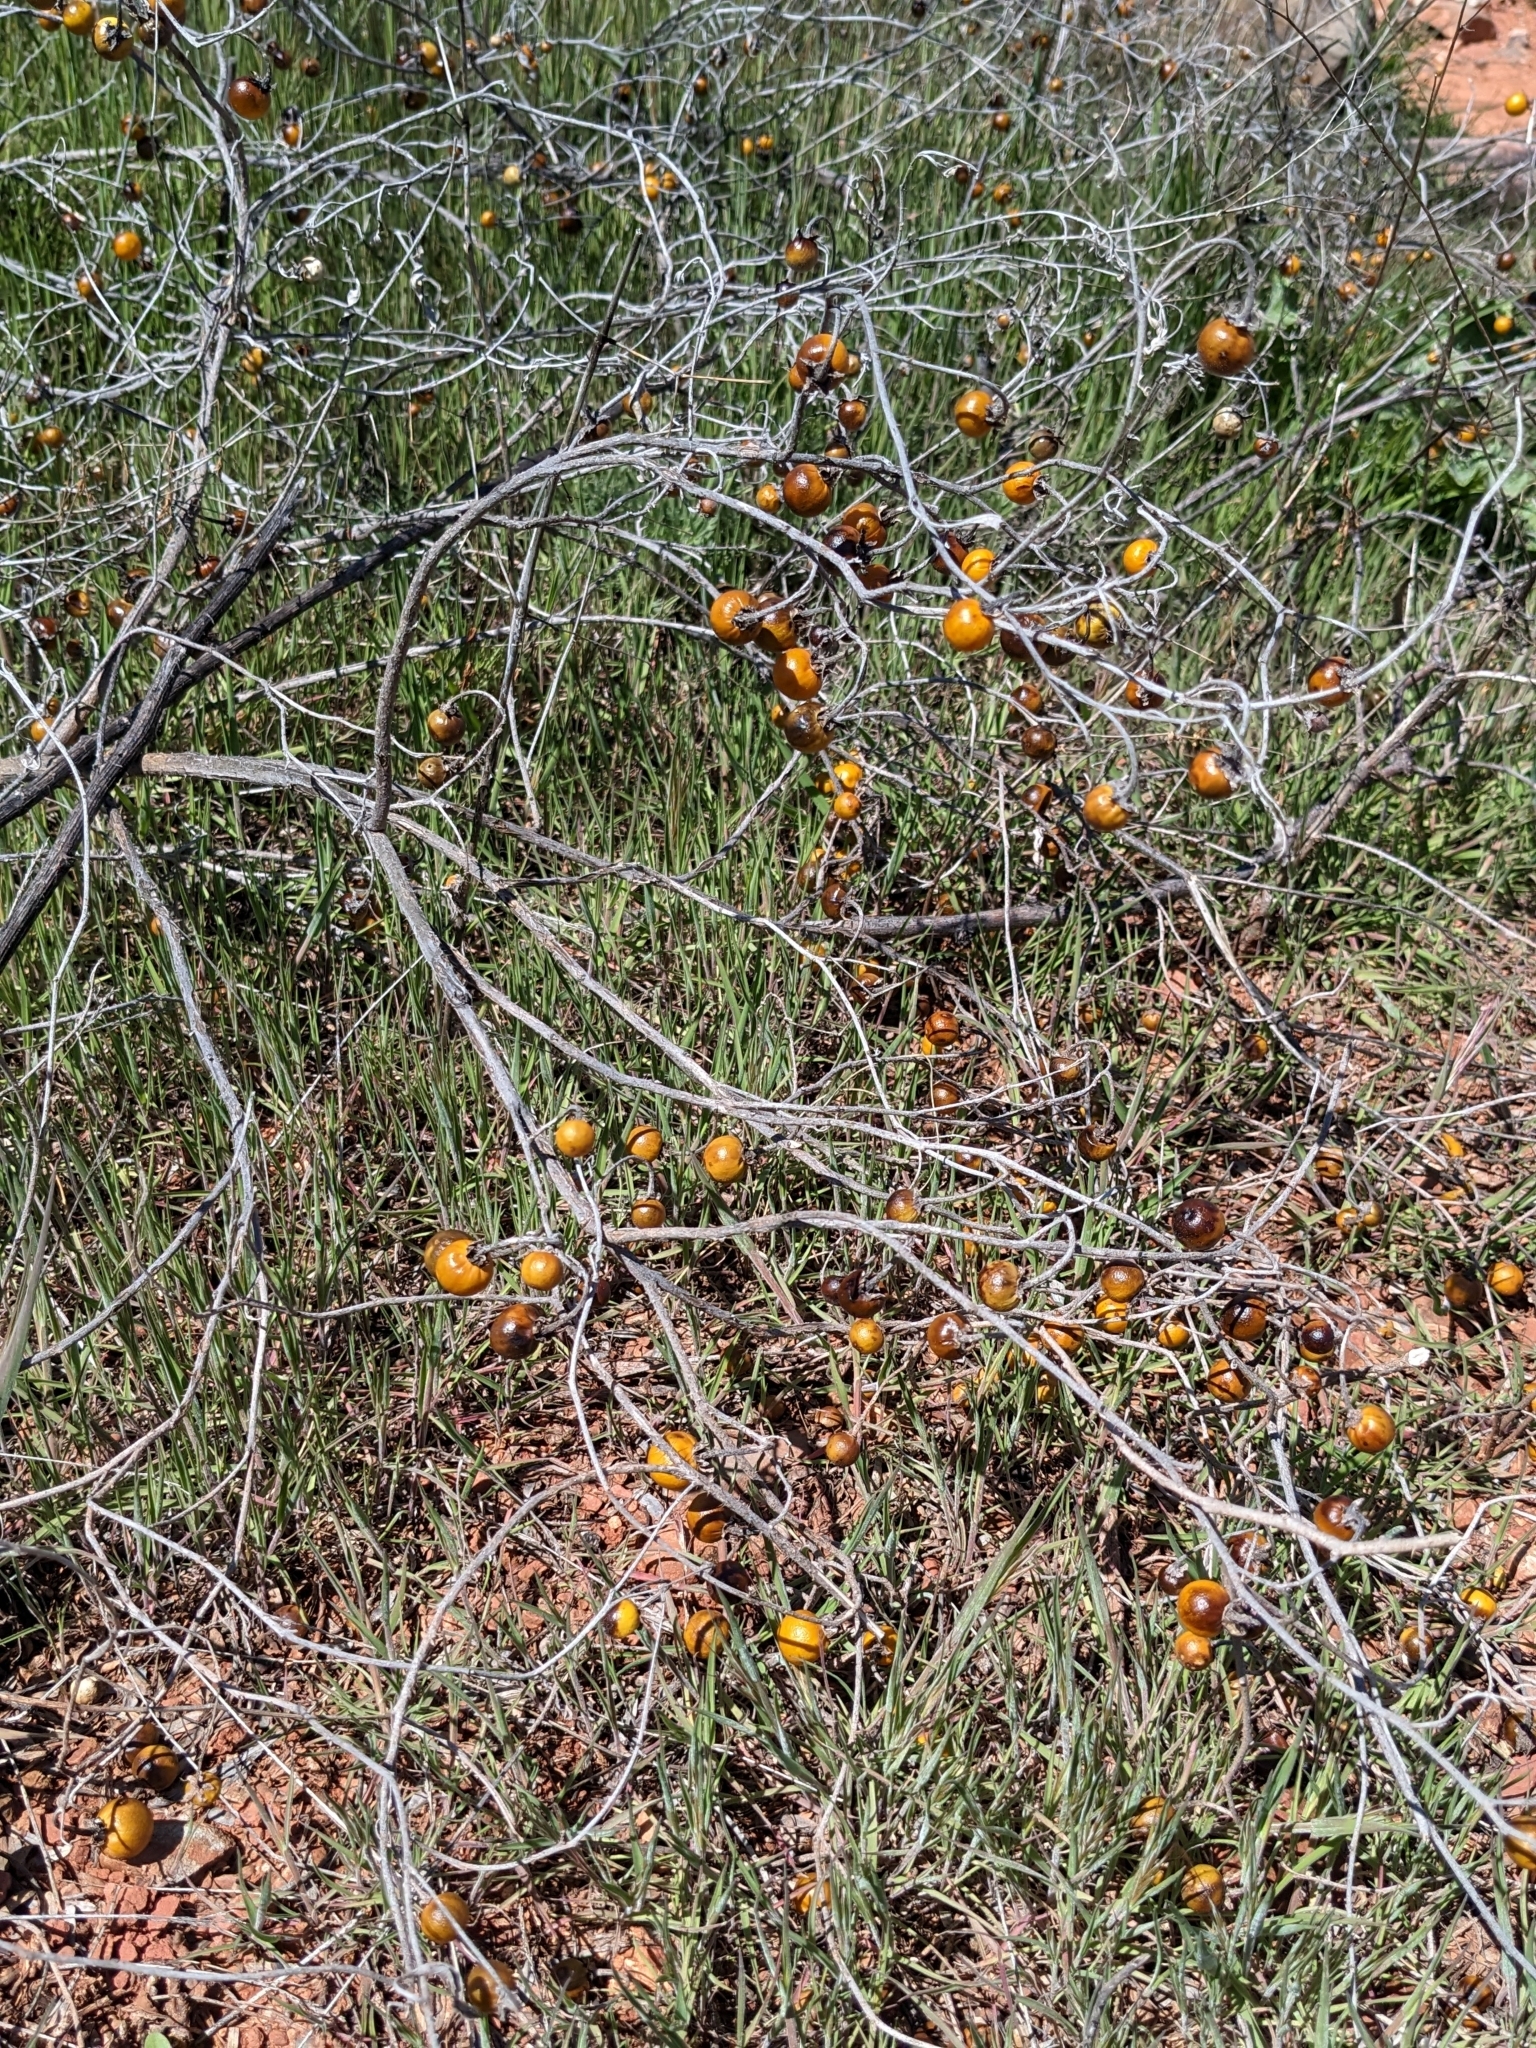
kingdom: Plantae
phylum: Tracheophyta
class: Magnoliopsida
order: Solanales
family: Solanaceae
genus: Solanum
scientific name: Solanum elaeagnifolium
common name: Silverleaf nightshade
